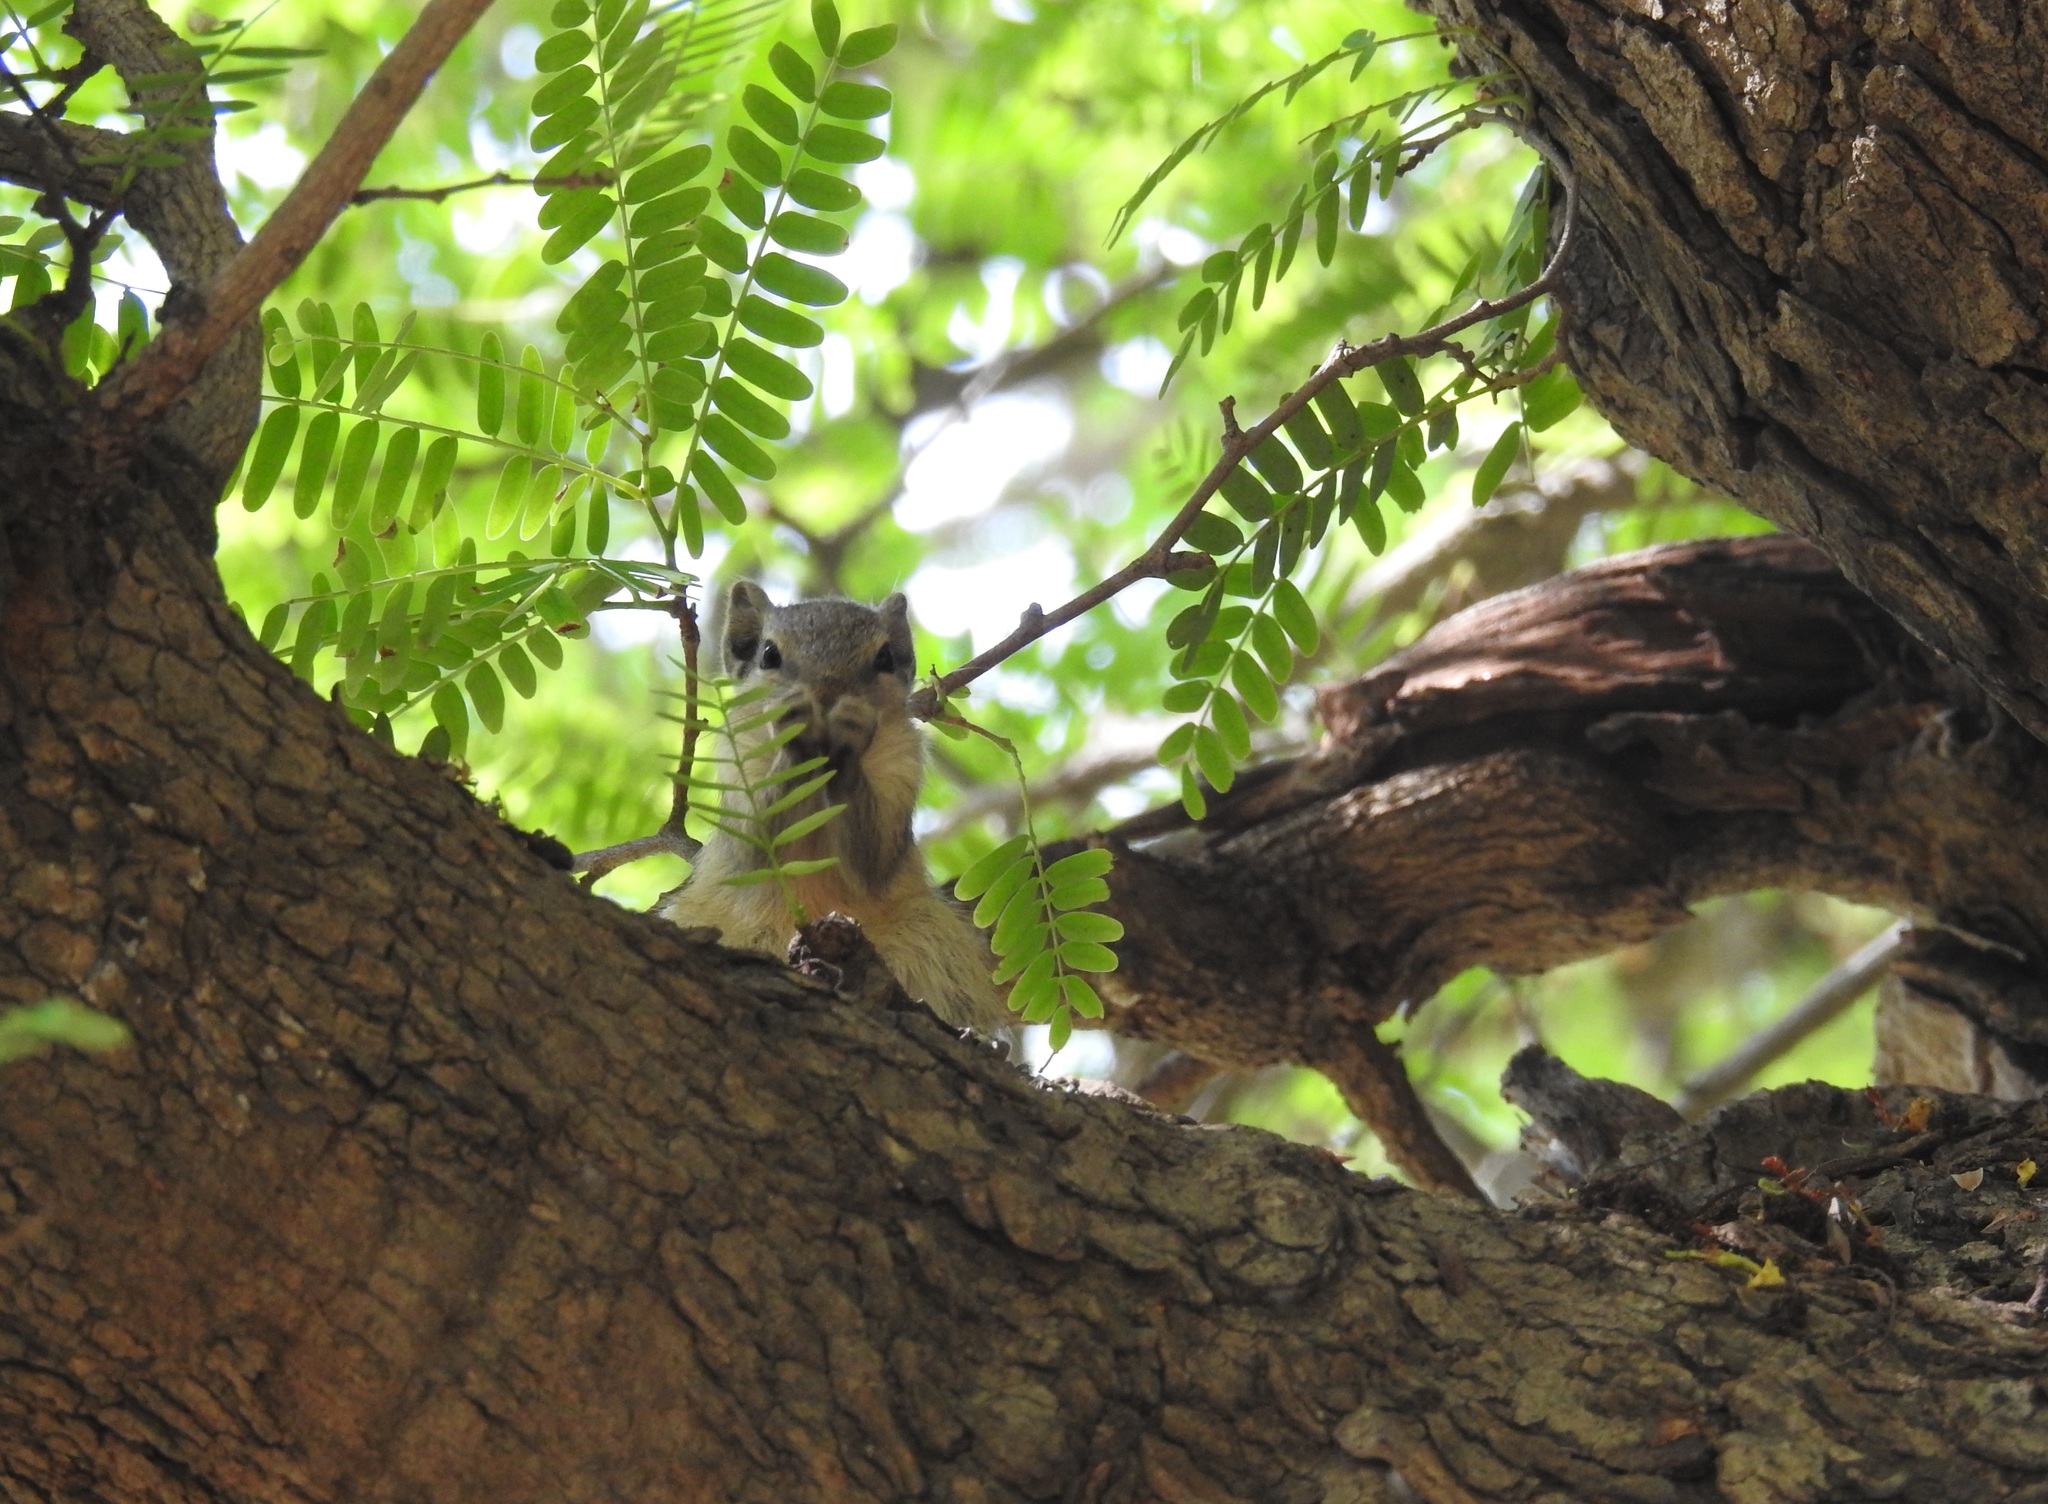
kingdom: Animalia
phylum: Chordata
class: Mammalia
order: Rodentia
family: Sciuridae
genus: Funambulus
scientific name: Funambulus pennantii
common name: Northern palm squirrel
